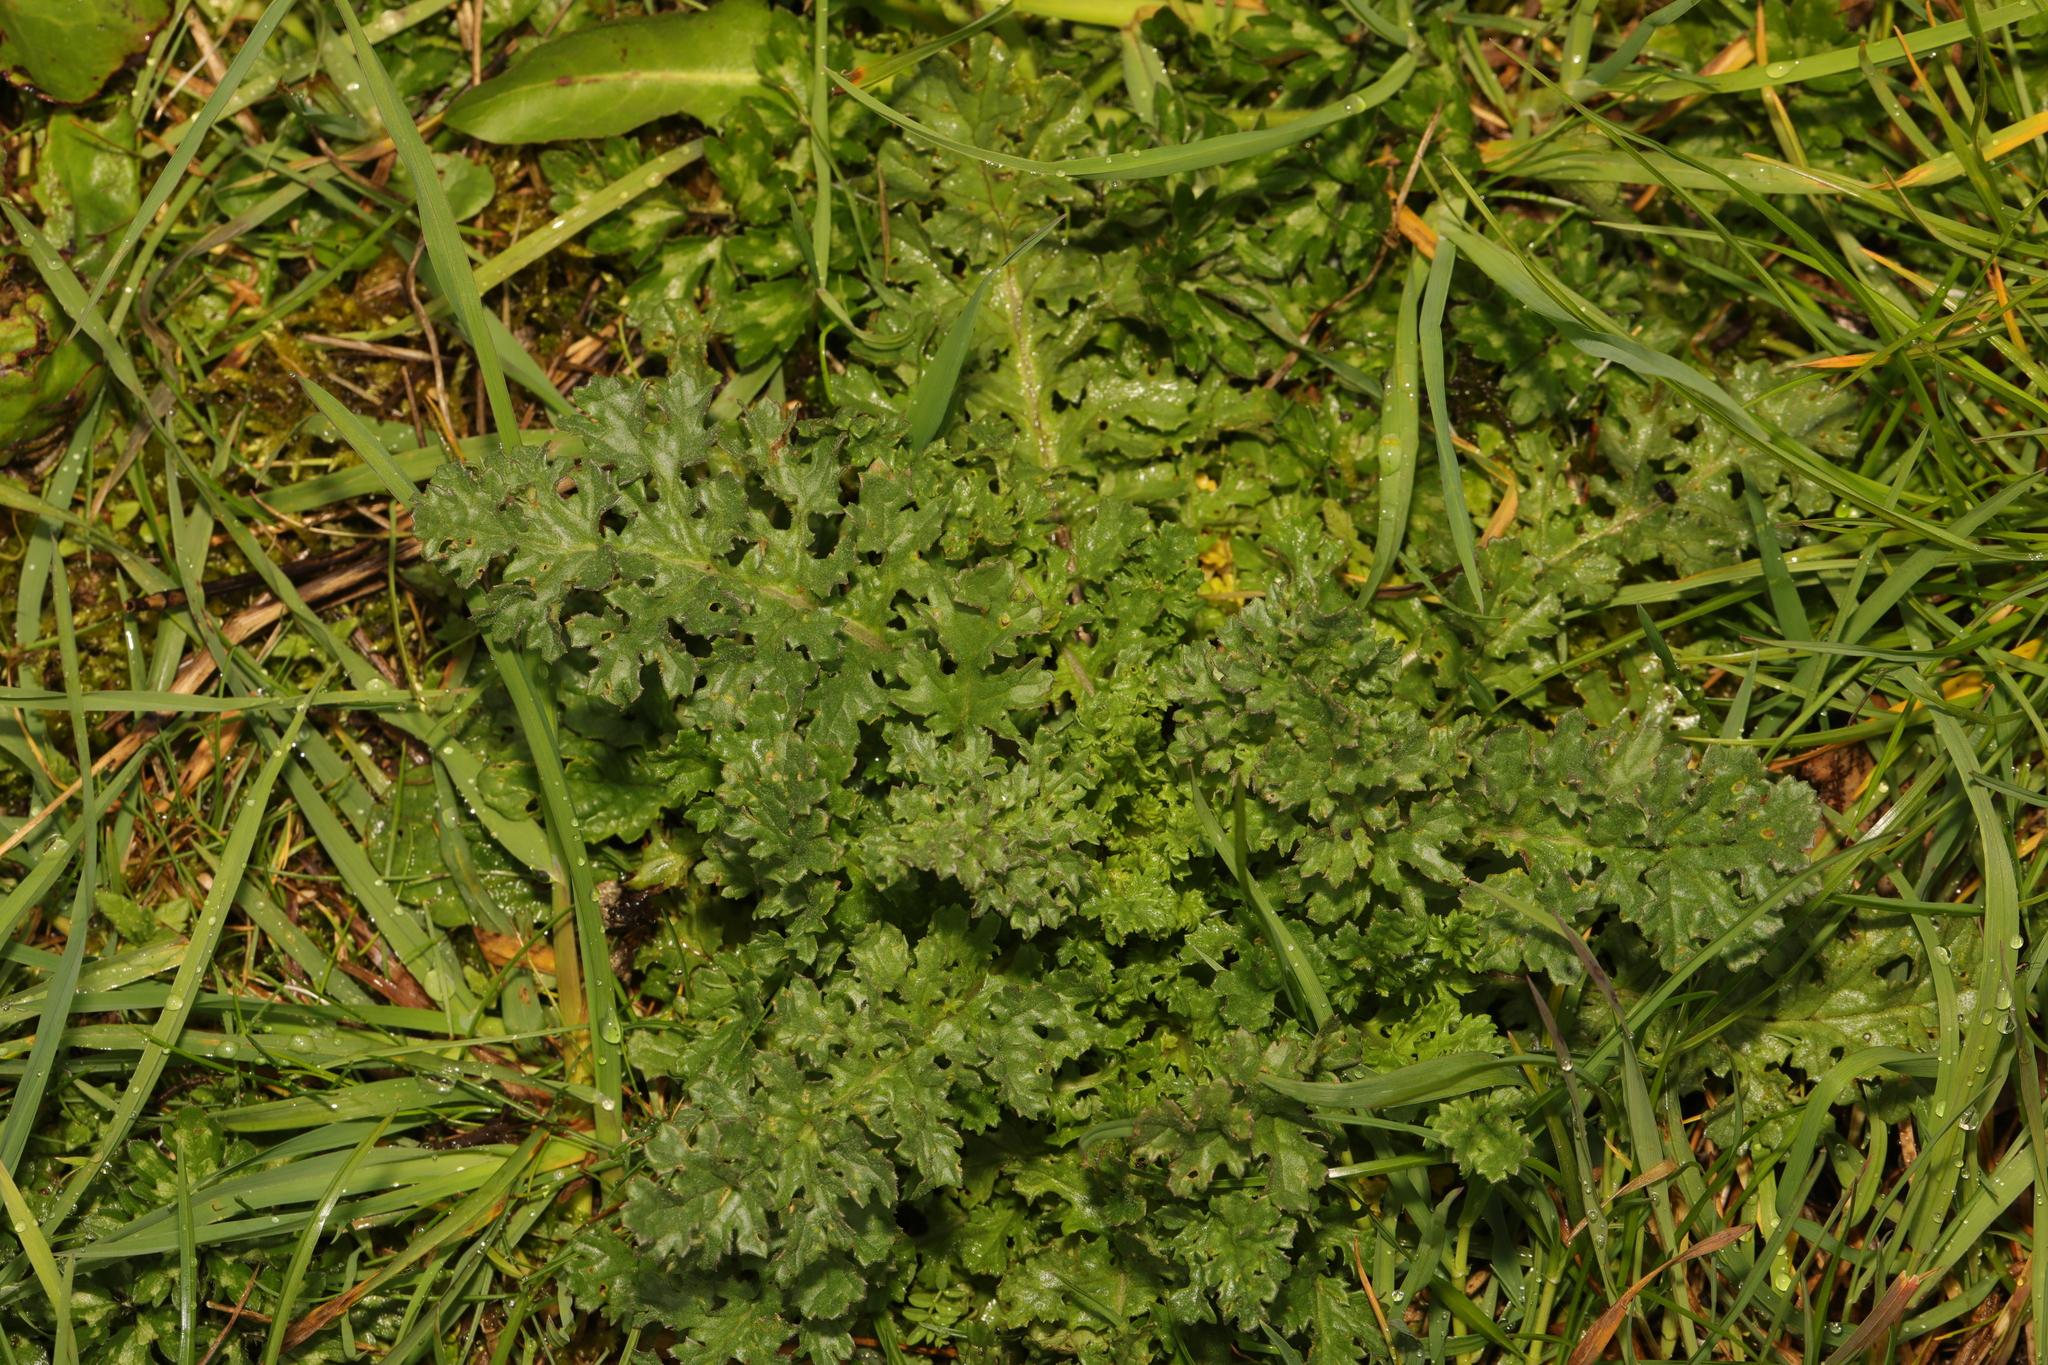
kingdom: Plantae
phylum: Tracheophyta
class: Magnoliopsida
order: Asterales
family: Asteraceae
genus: Jacobaea
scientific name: Jacobaea vulgaris
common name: Stinking willie
